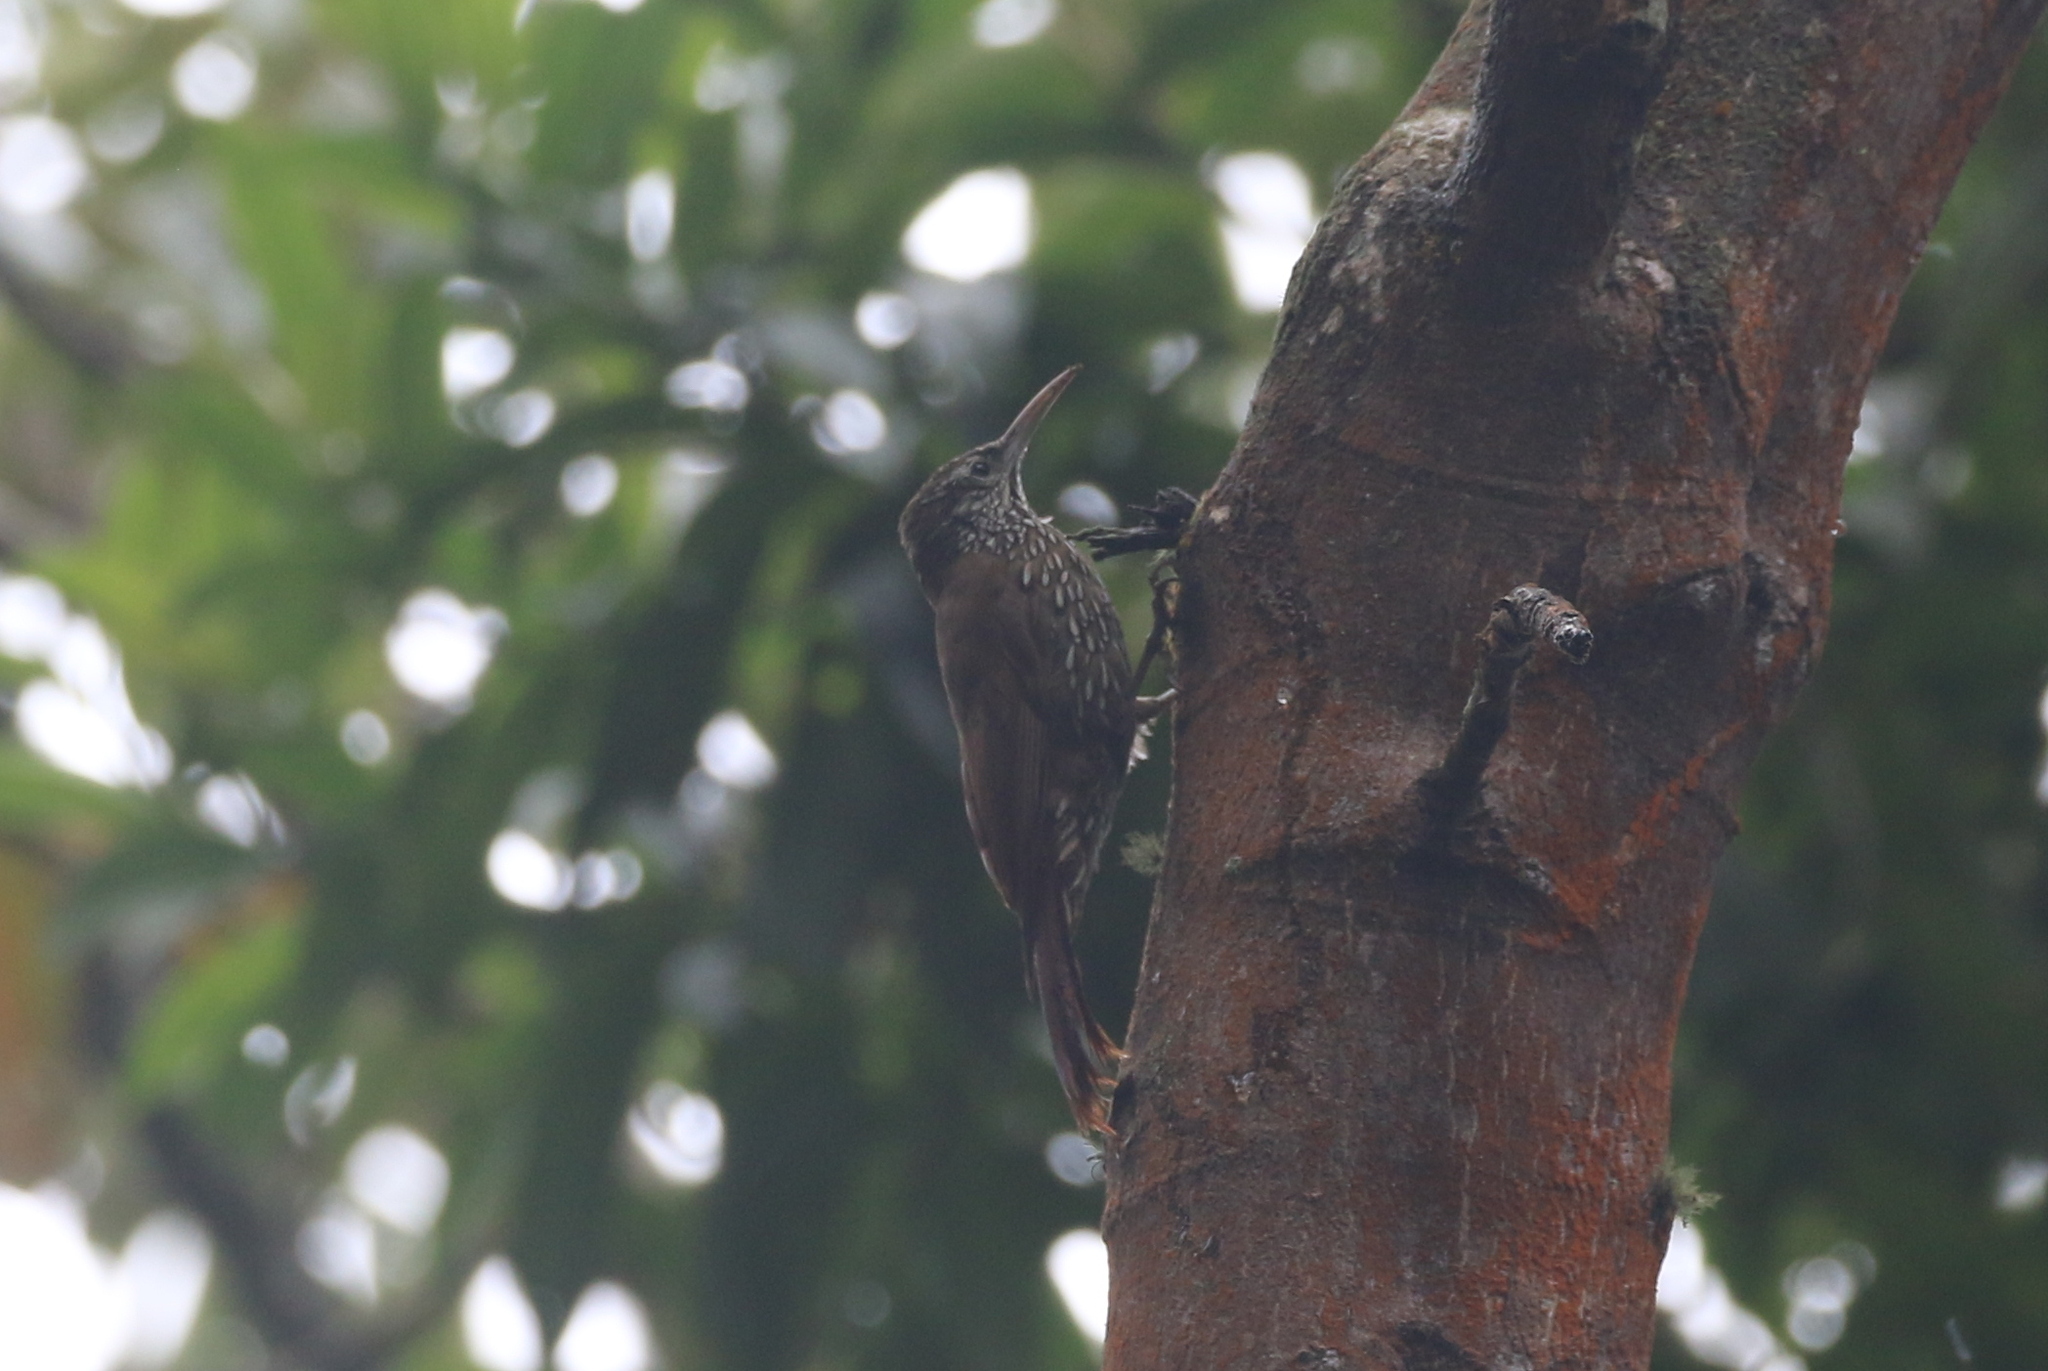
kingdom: Animalia
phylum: Chordata
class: Aves
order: Passeriformes
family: Furnariidae
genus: Lepidocolaptes
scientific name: Lepidocolaptes lacrymiger
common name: Montane woodcreeper
